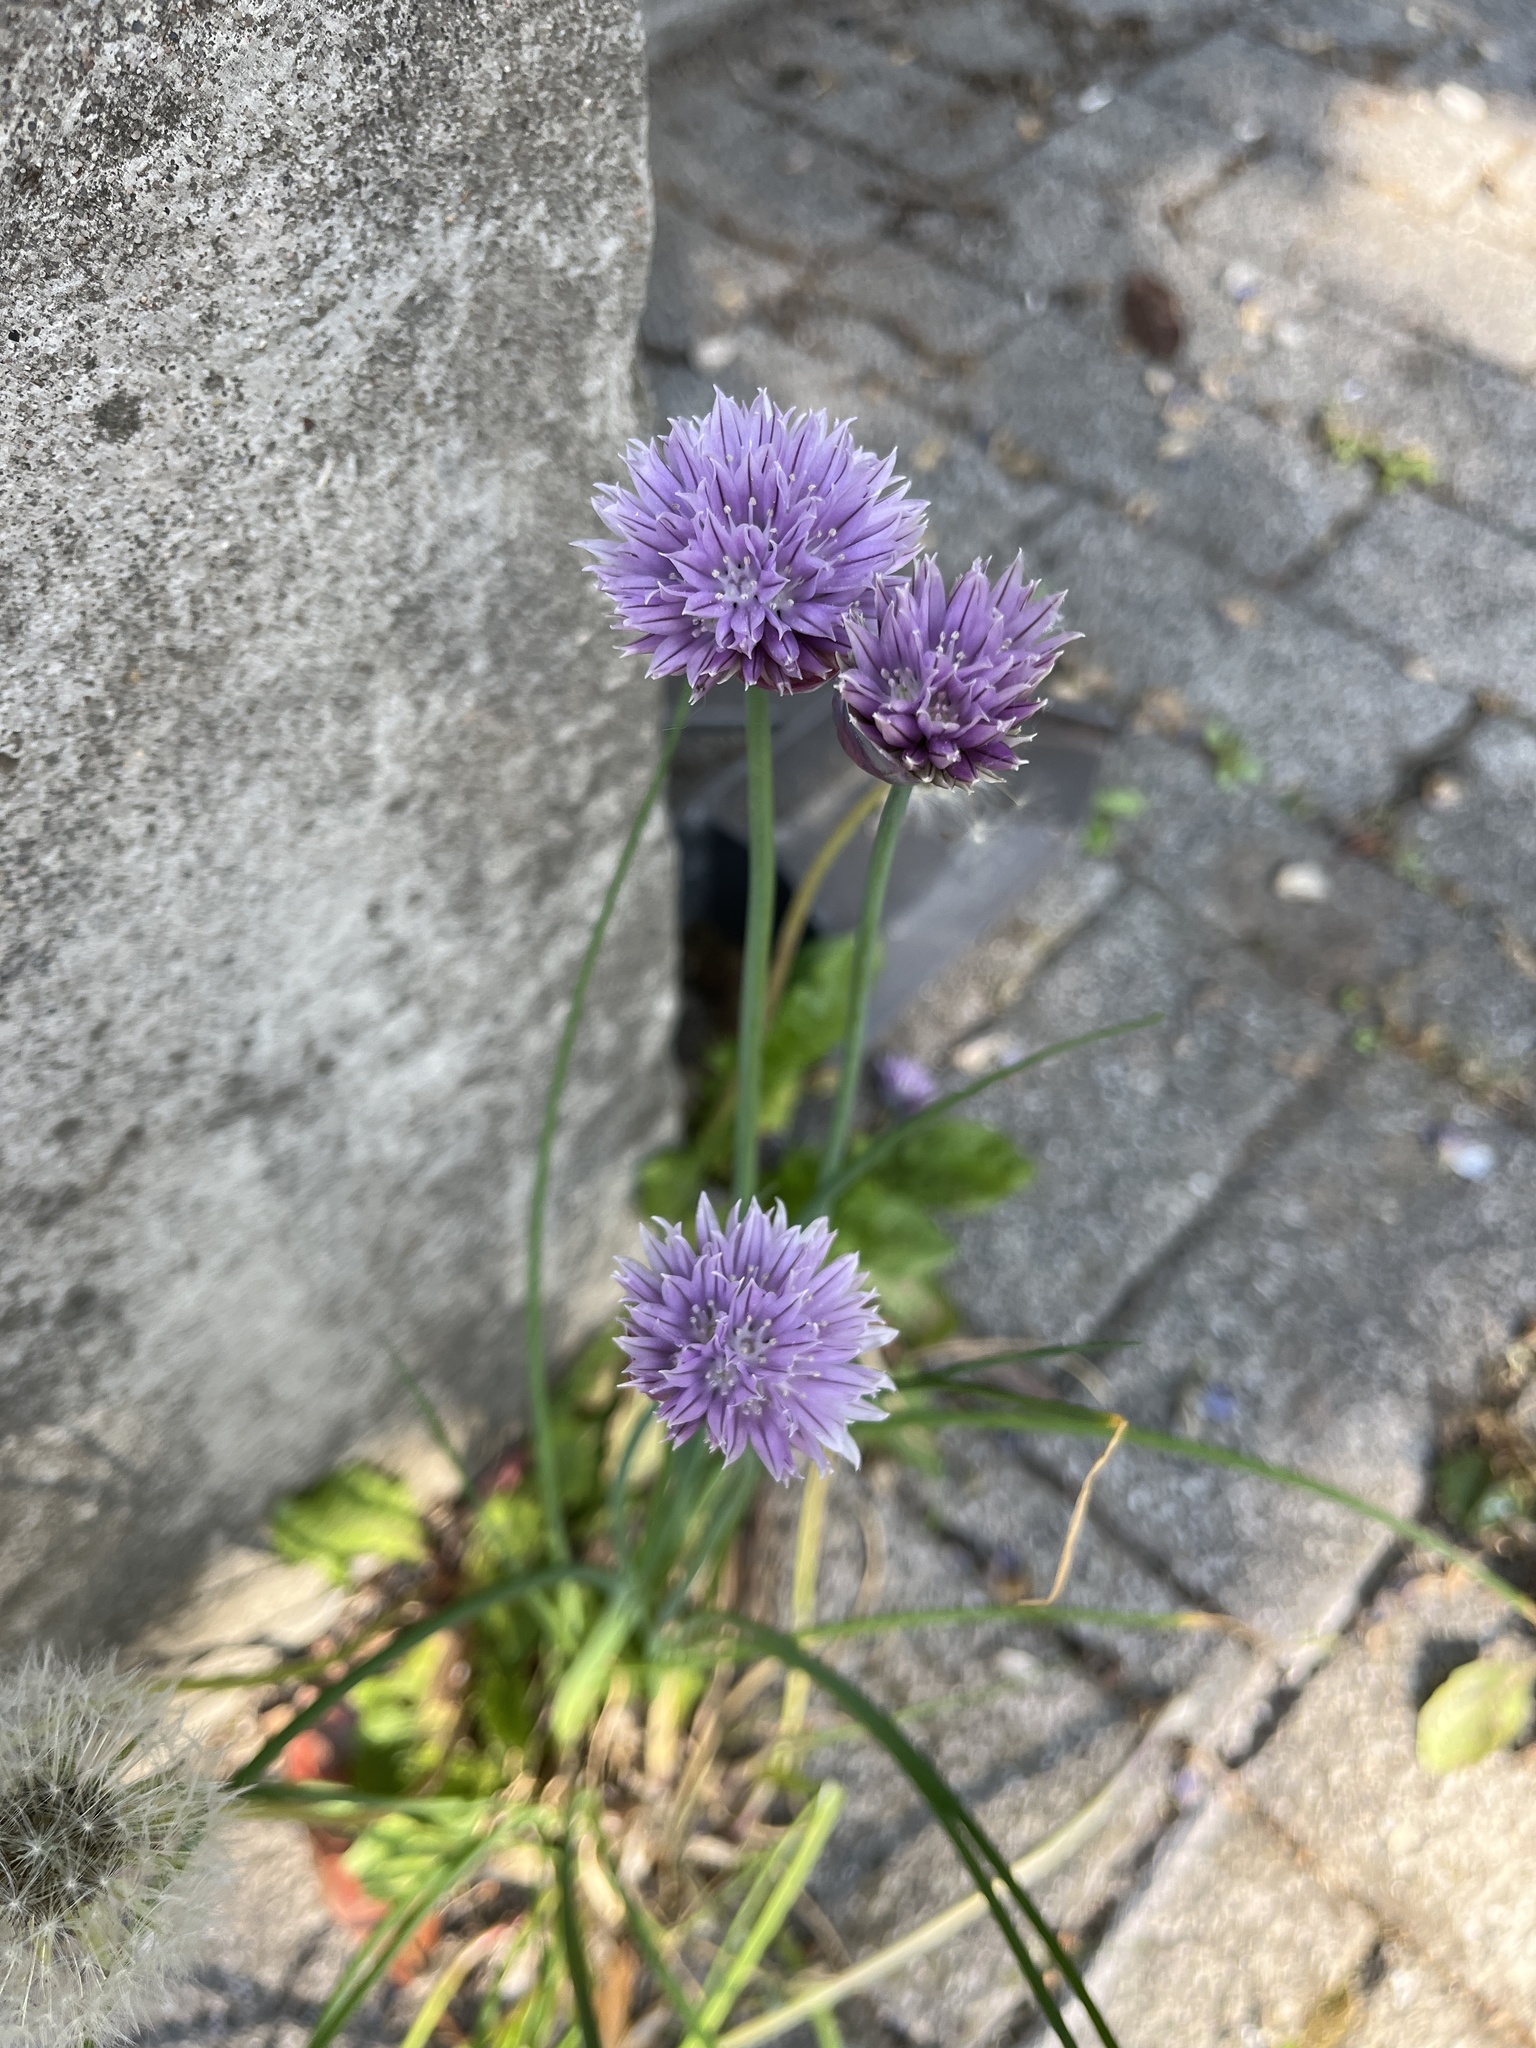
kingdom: Plantae
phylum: Tracheophyta
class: Liliopsida
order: Asparagales
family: Amaryllidaceae
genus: Allium
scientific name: Allium schoenoprasum
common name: Chives
